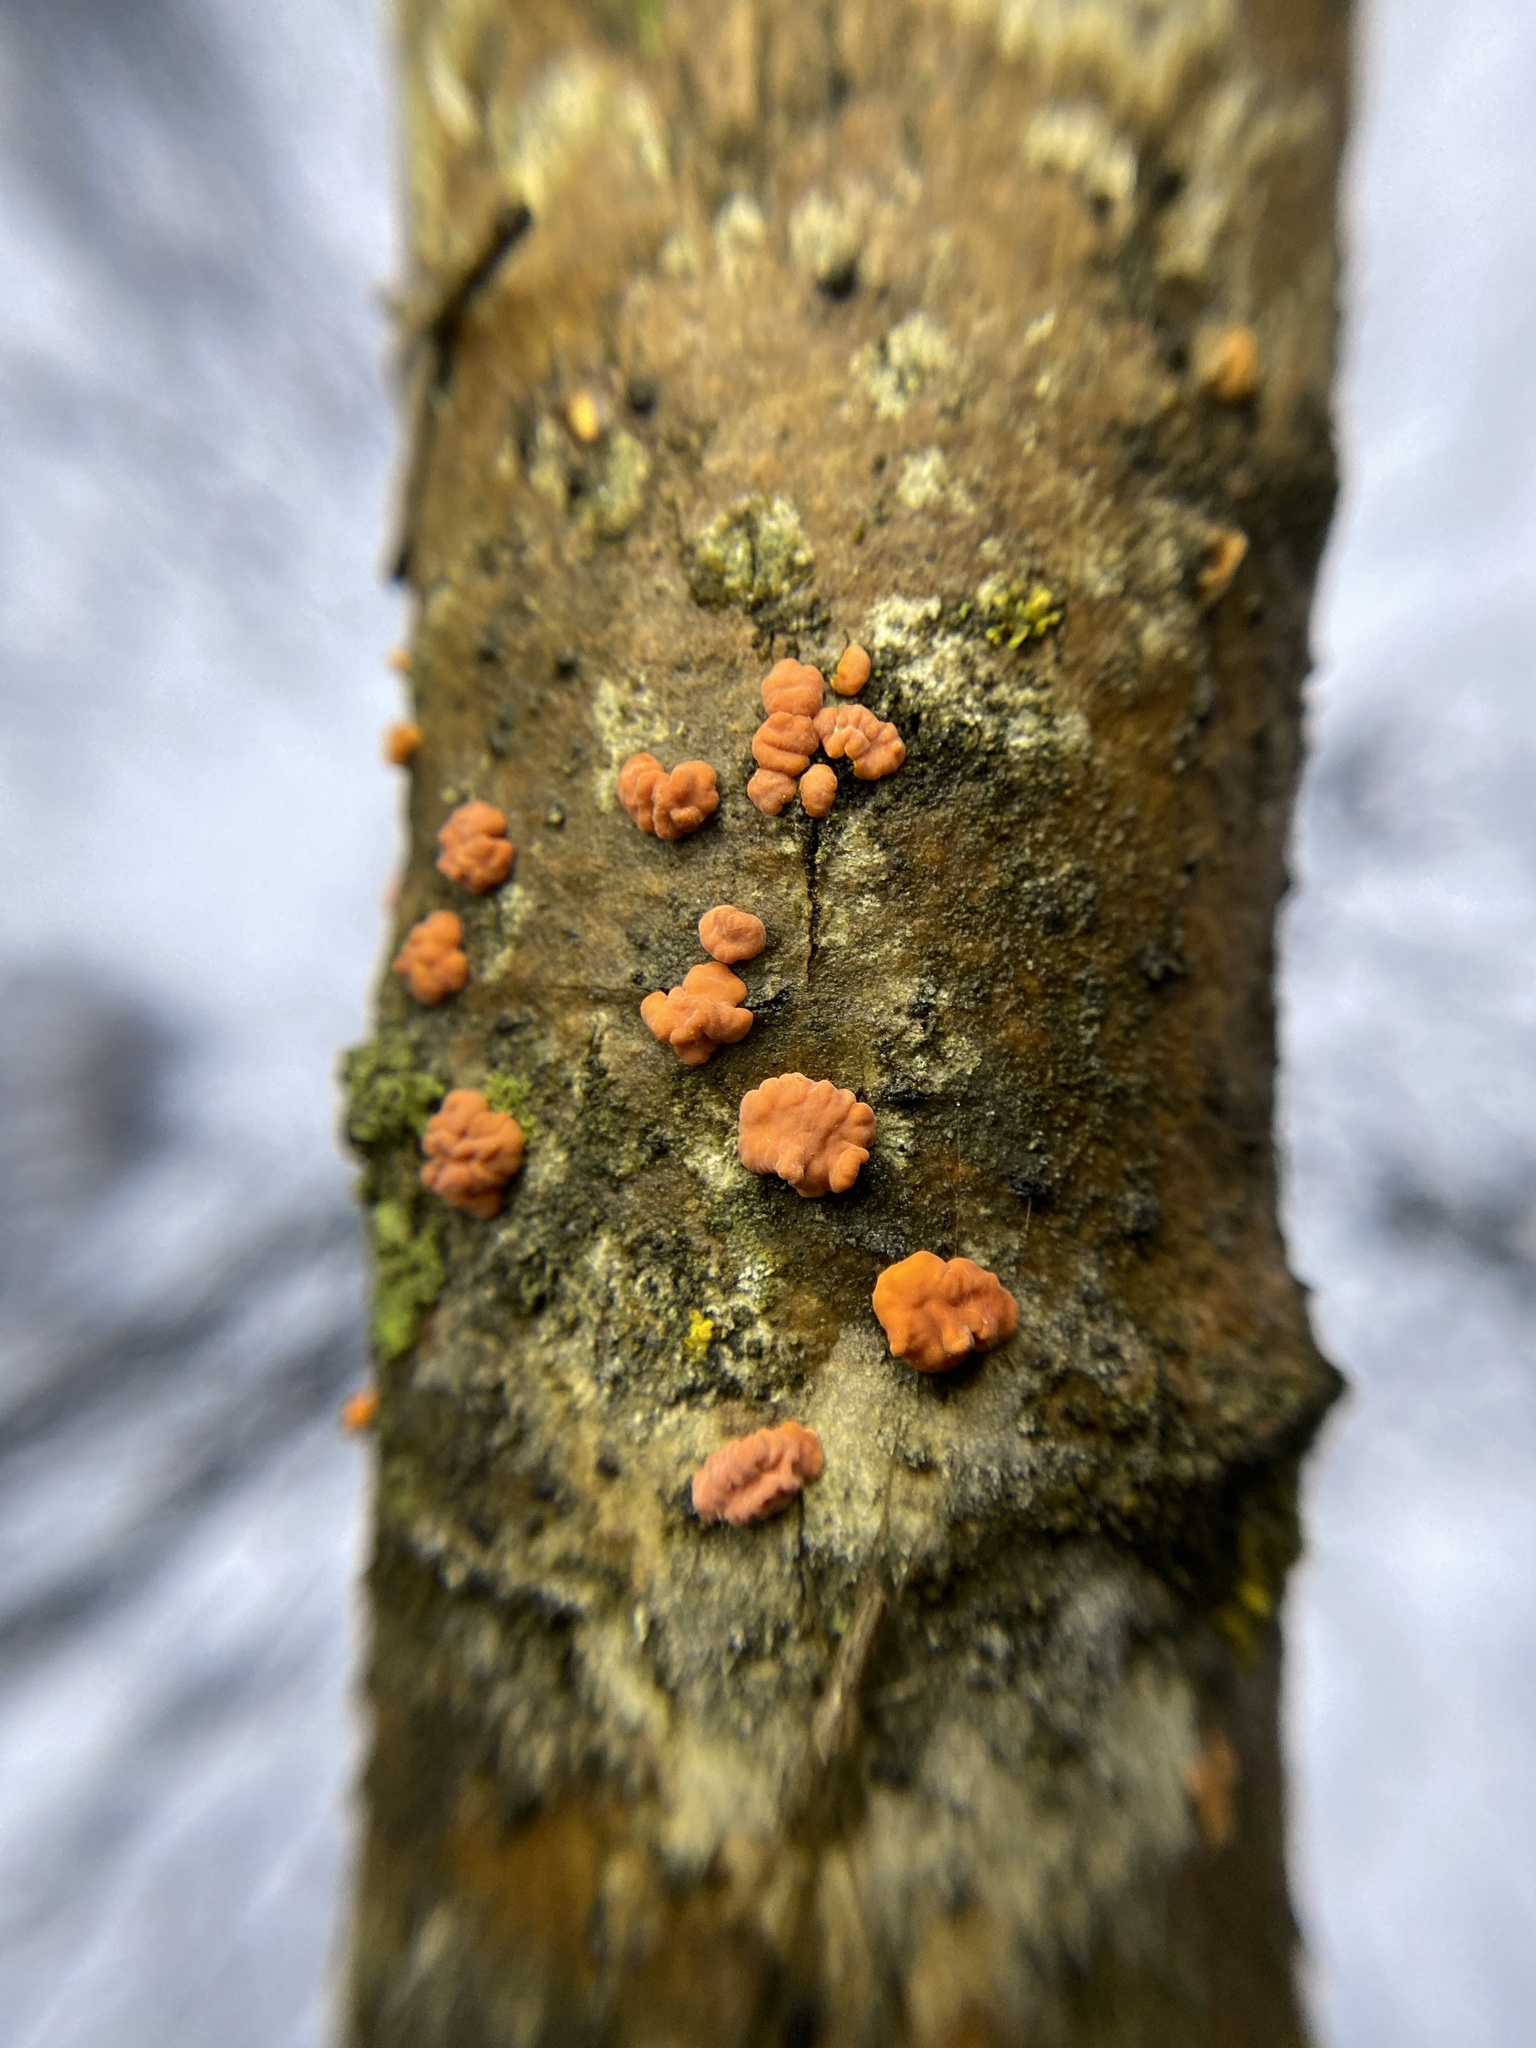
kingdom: Fungi
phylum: Basidiomycota
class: Agaricomycetes
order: Russulales
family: Peniophoraceae
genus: Peniophora
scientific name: Peniophora rufa
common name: Red tree brain fungus
